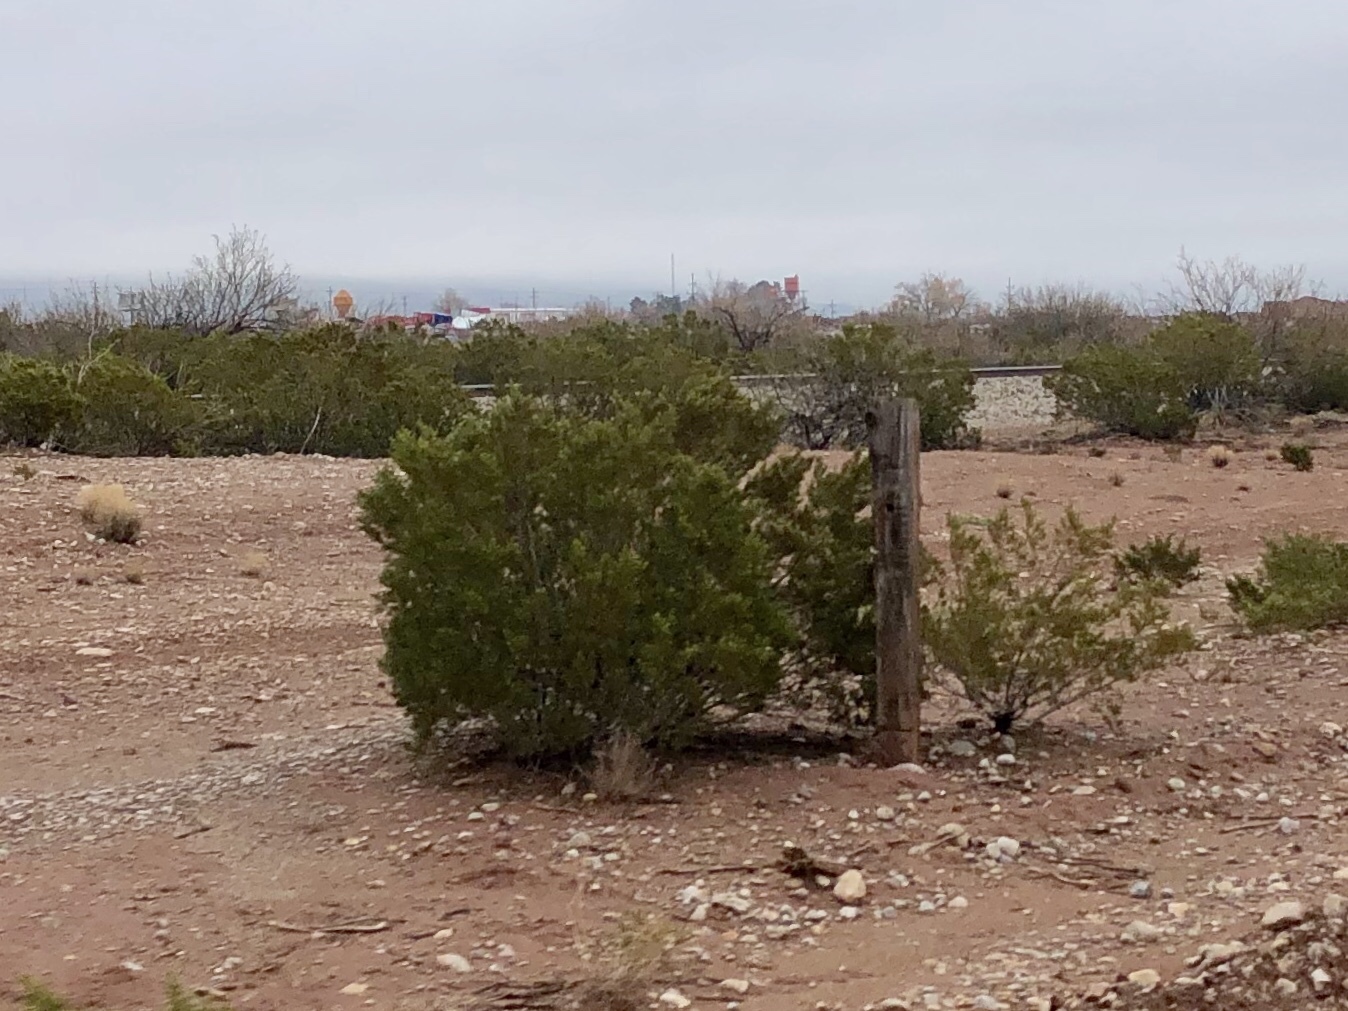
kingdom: Plantae
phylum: Tracheophyta
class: Magnoliopsida
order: Zygophyllales
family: Zygophyllaceae
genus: Larrea
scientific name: Larrea tridentata
